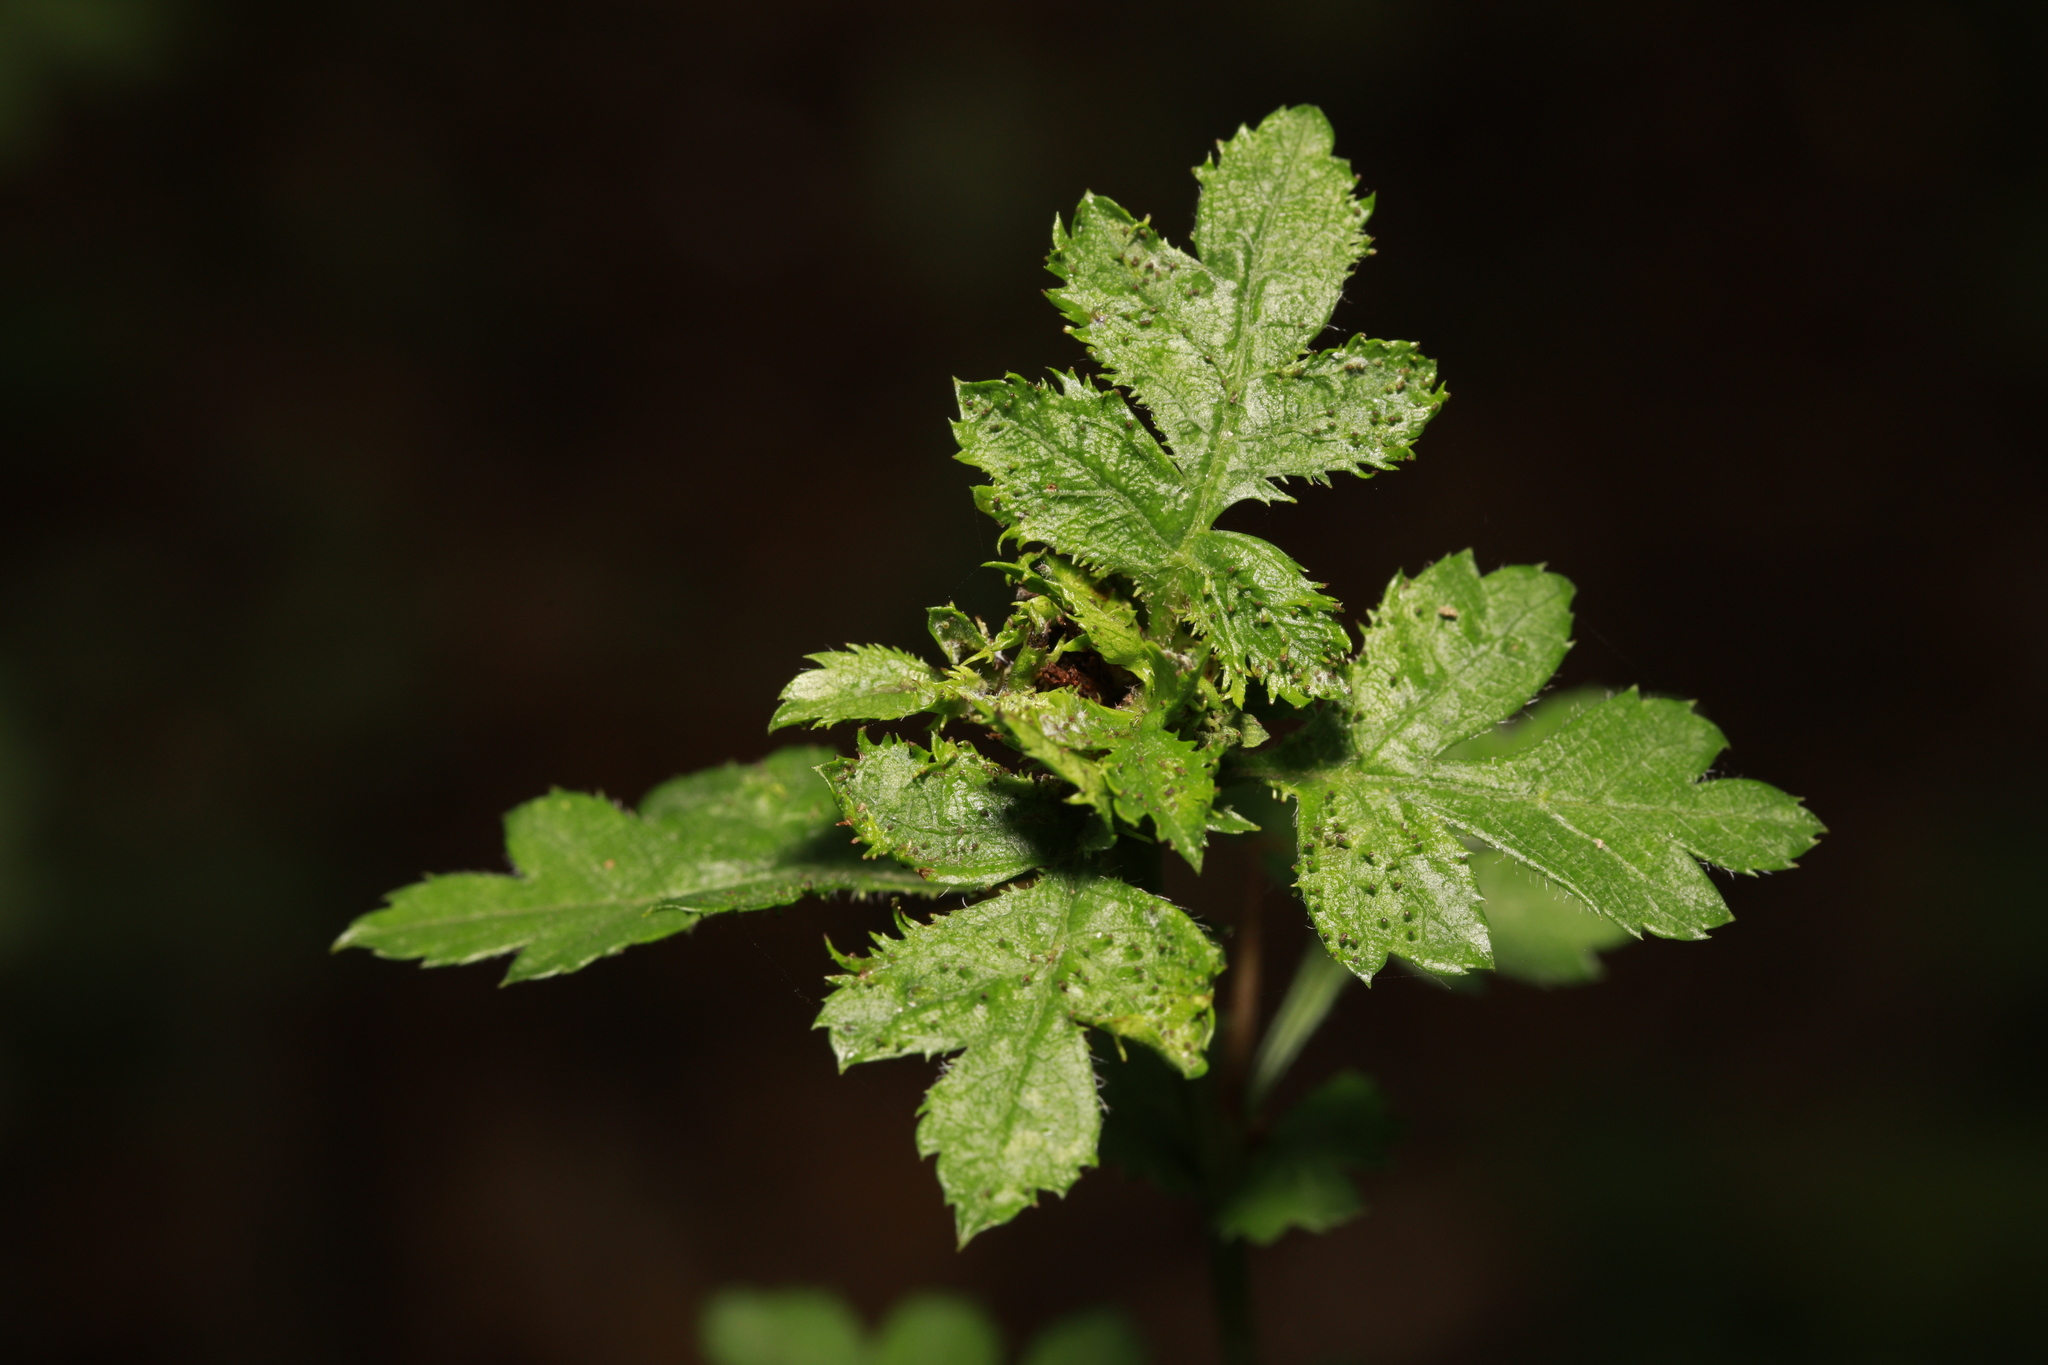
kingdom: Animalia
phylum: Arthropoda
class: Insecta
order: Diptera
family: Cecidomyiidae
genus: Dasineura
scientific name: Dasineura crataegi
